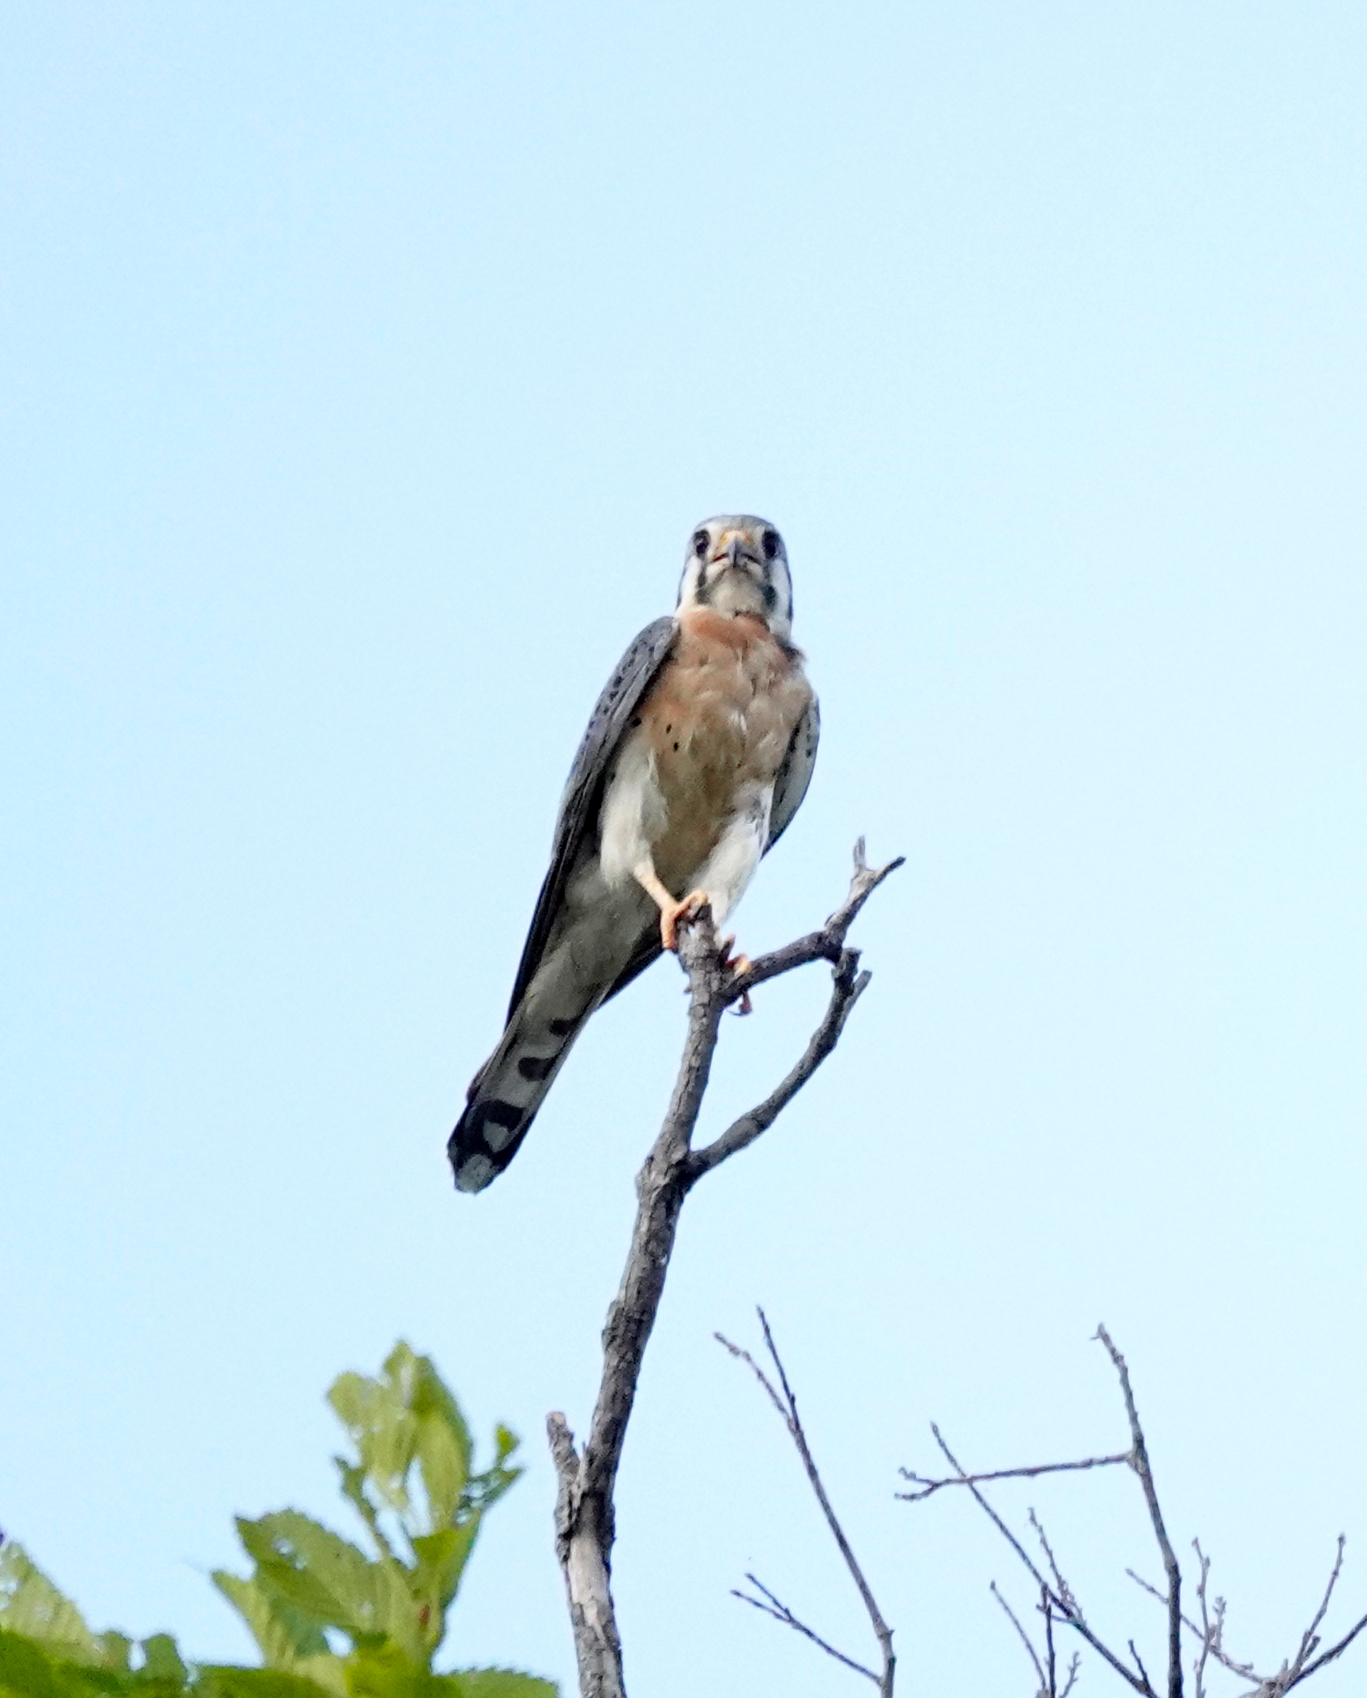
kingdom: Animalia
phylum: Chordata
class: Aves
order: Falconiformes
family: Falconidae
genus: Falco
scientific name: Falco sparverius
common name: American kestrel
